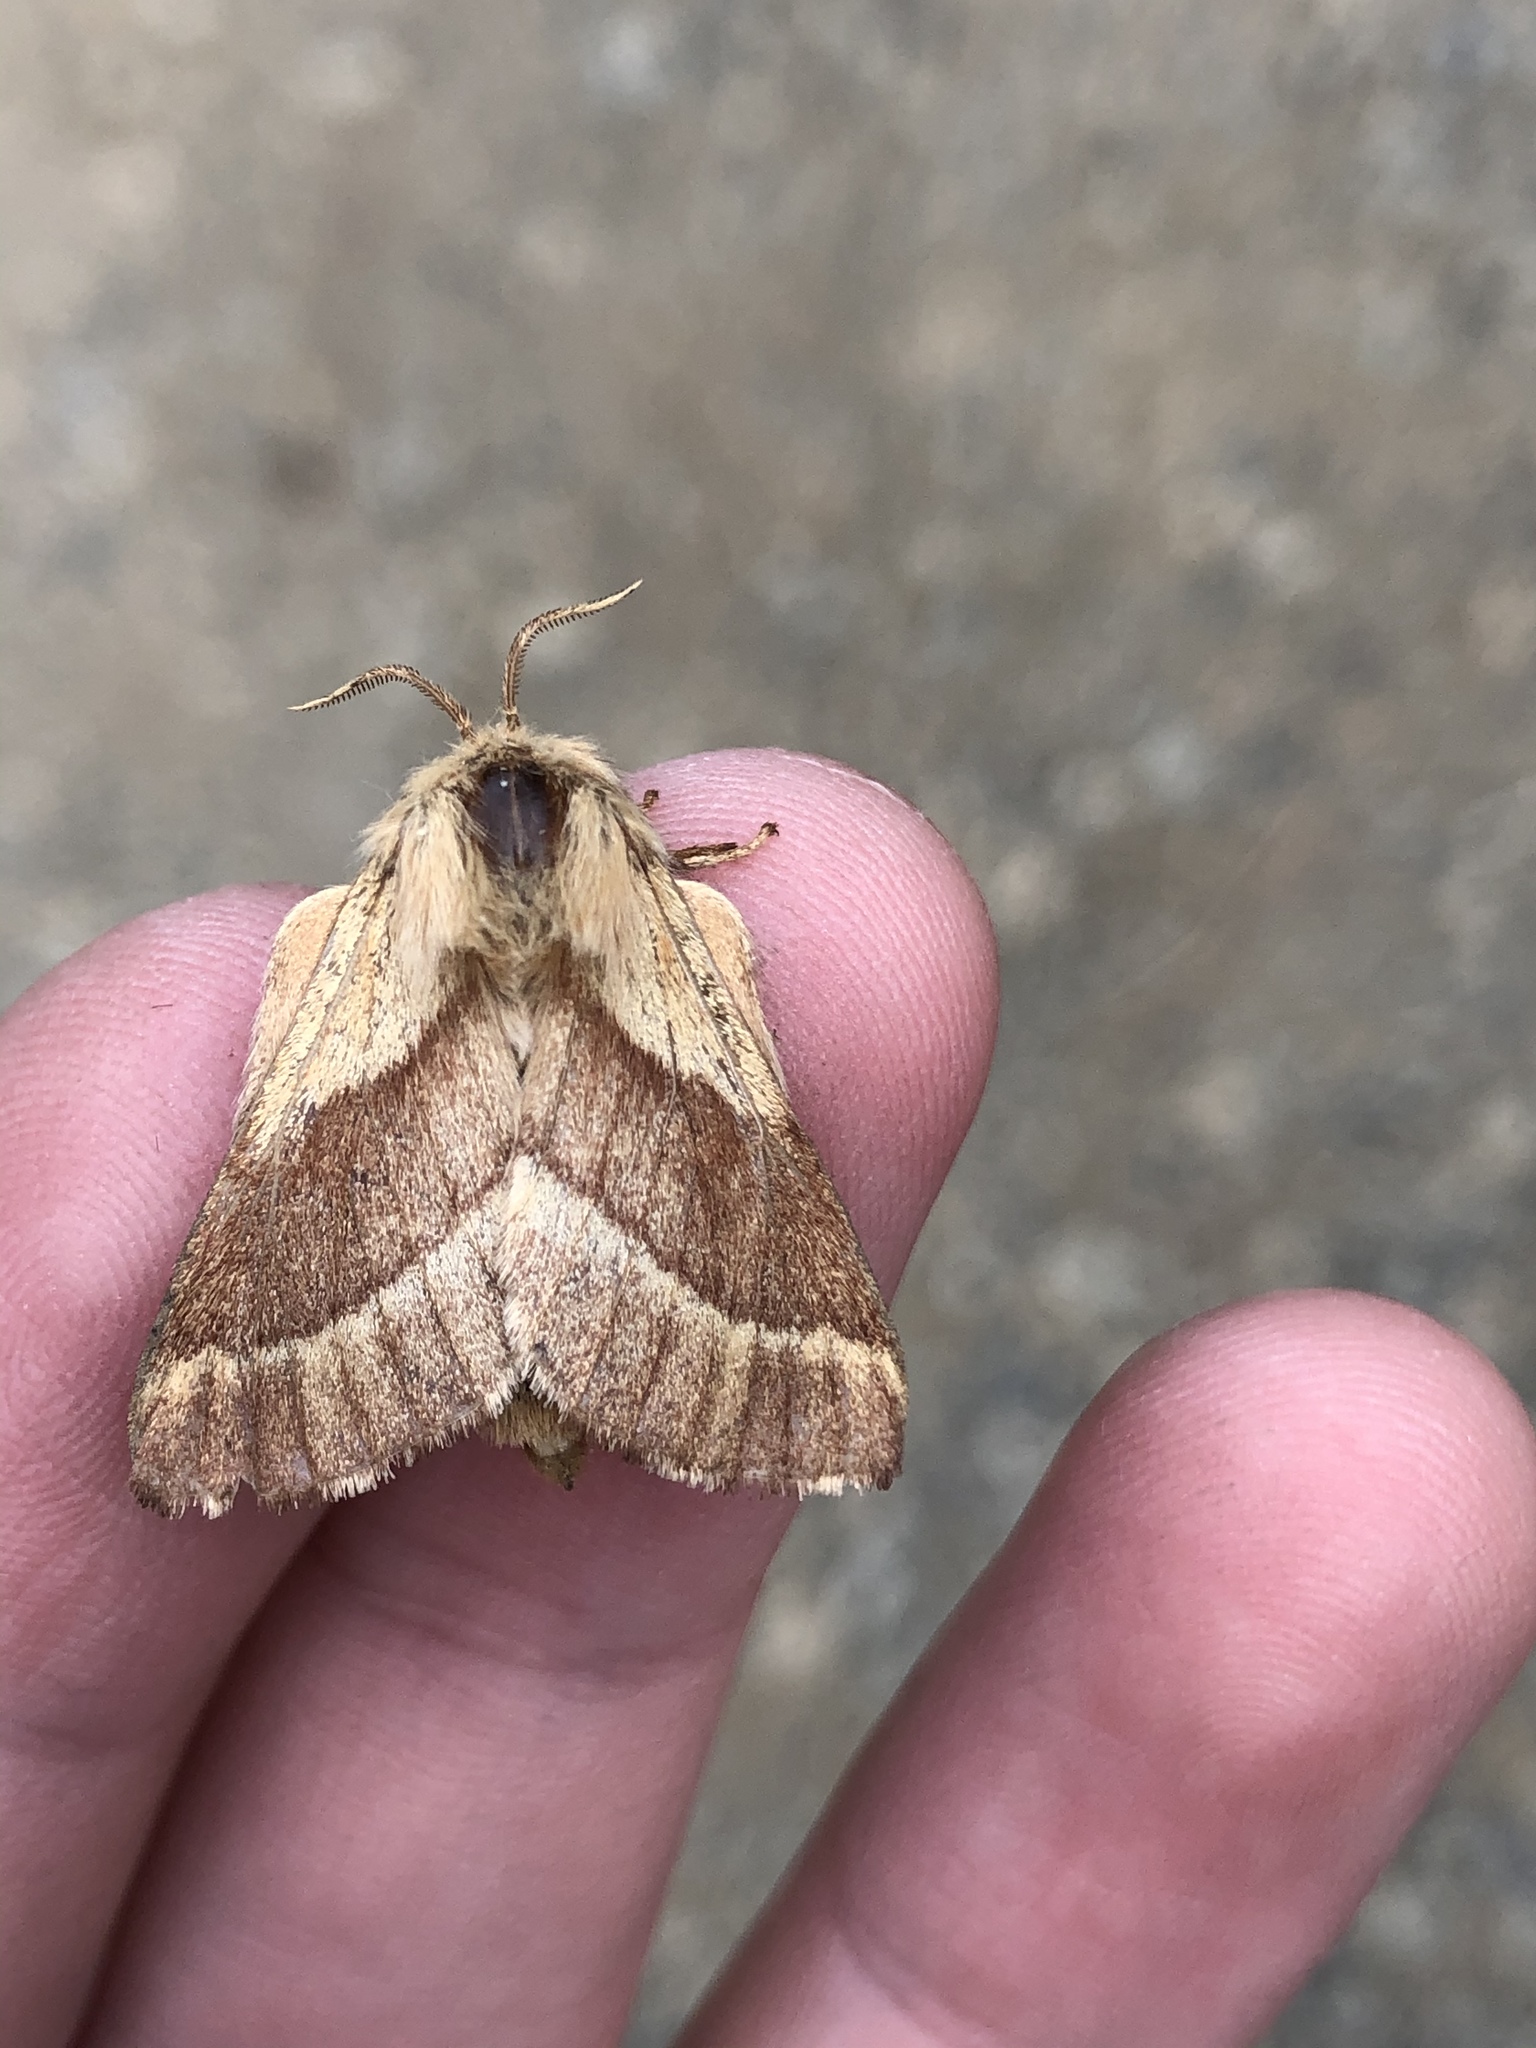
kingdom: Animalia
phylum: Arthropoda
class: Insecta
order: Lepidoptera
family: Lasiocampidae
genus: Malacosoma
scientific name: Malacosoma californica
